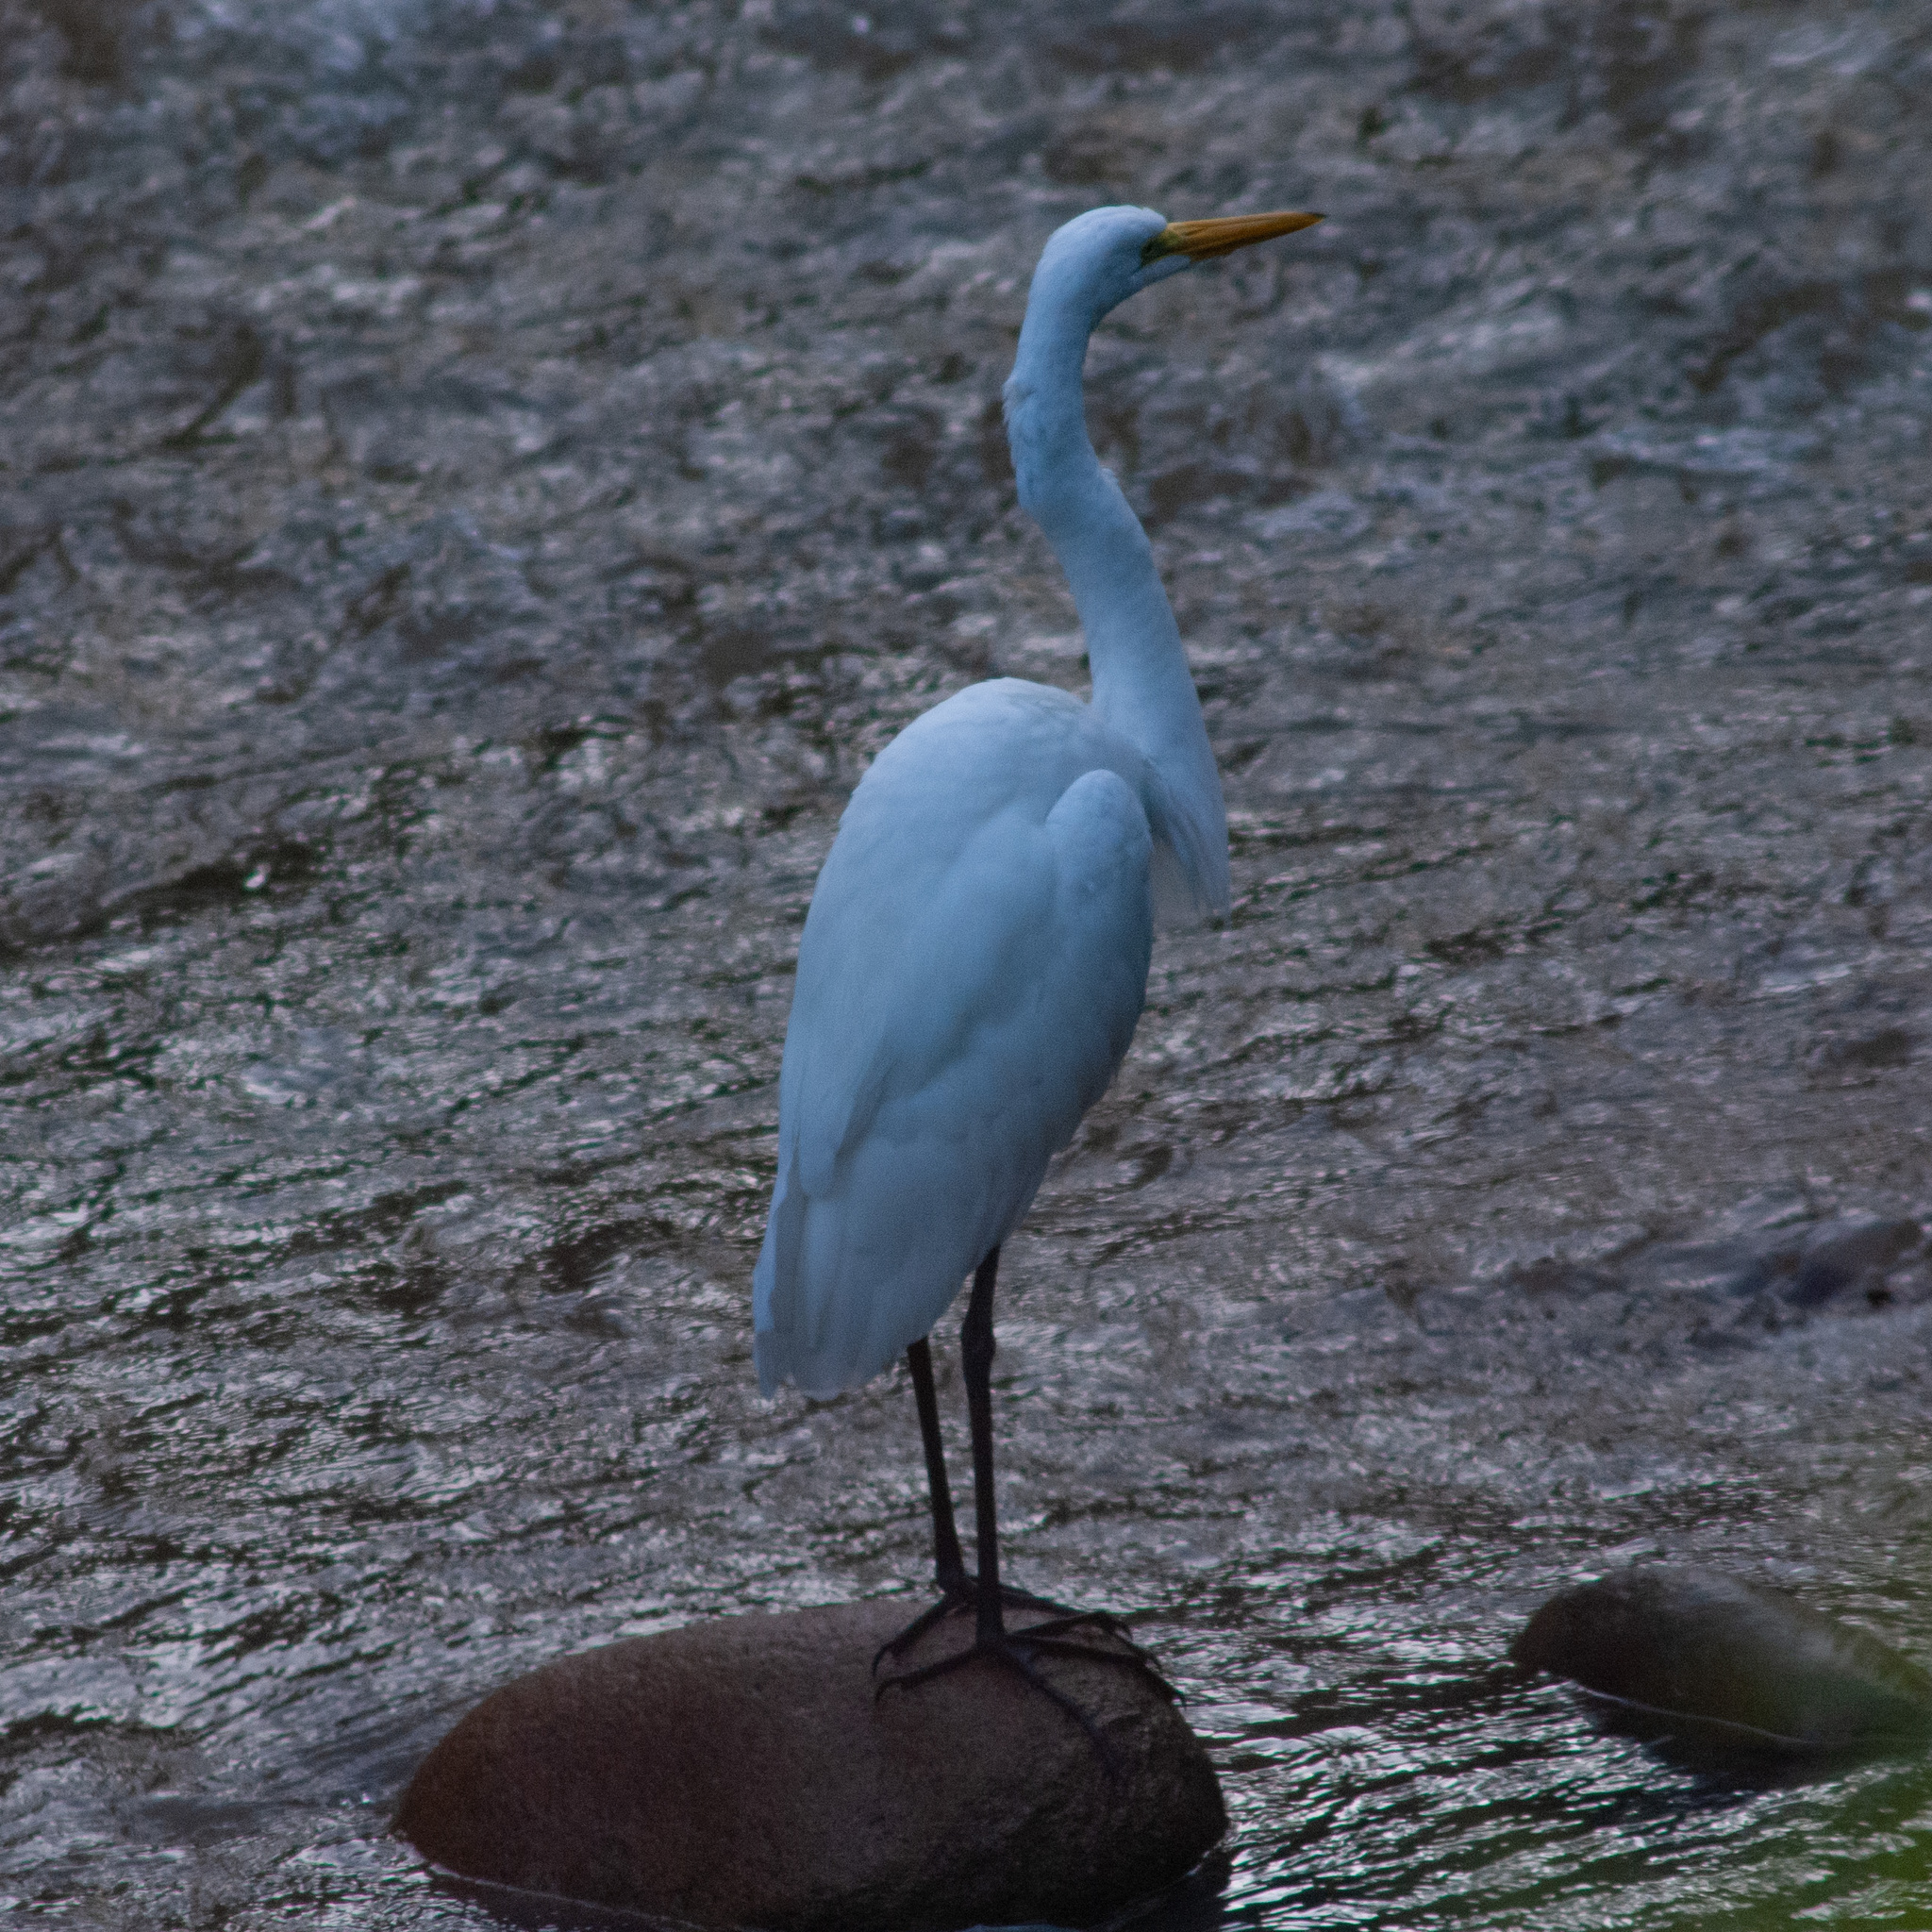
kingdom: Animalia
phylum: Chordata
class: Aves
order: Pelecaniformes
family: Ardeidae
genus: Ardea
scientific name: Ardea alba
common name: Great egret
